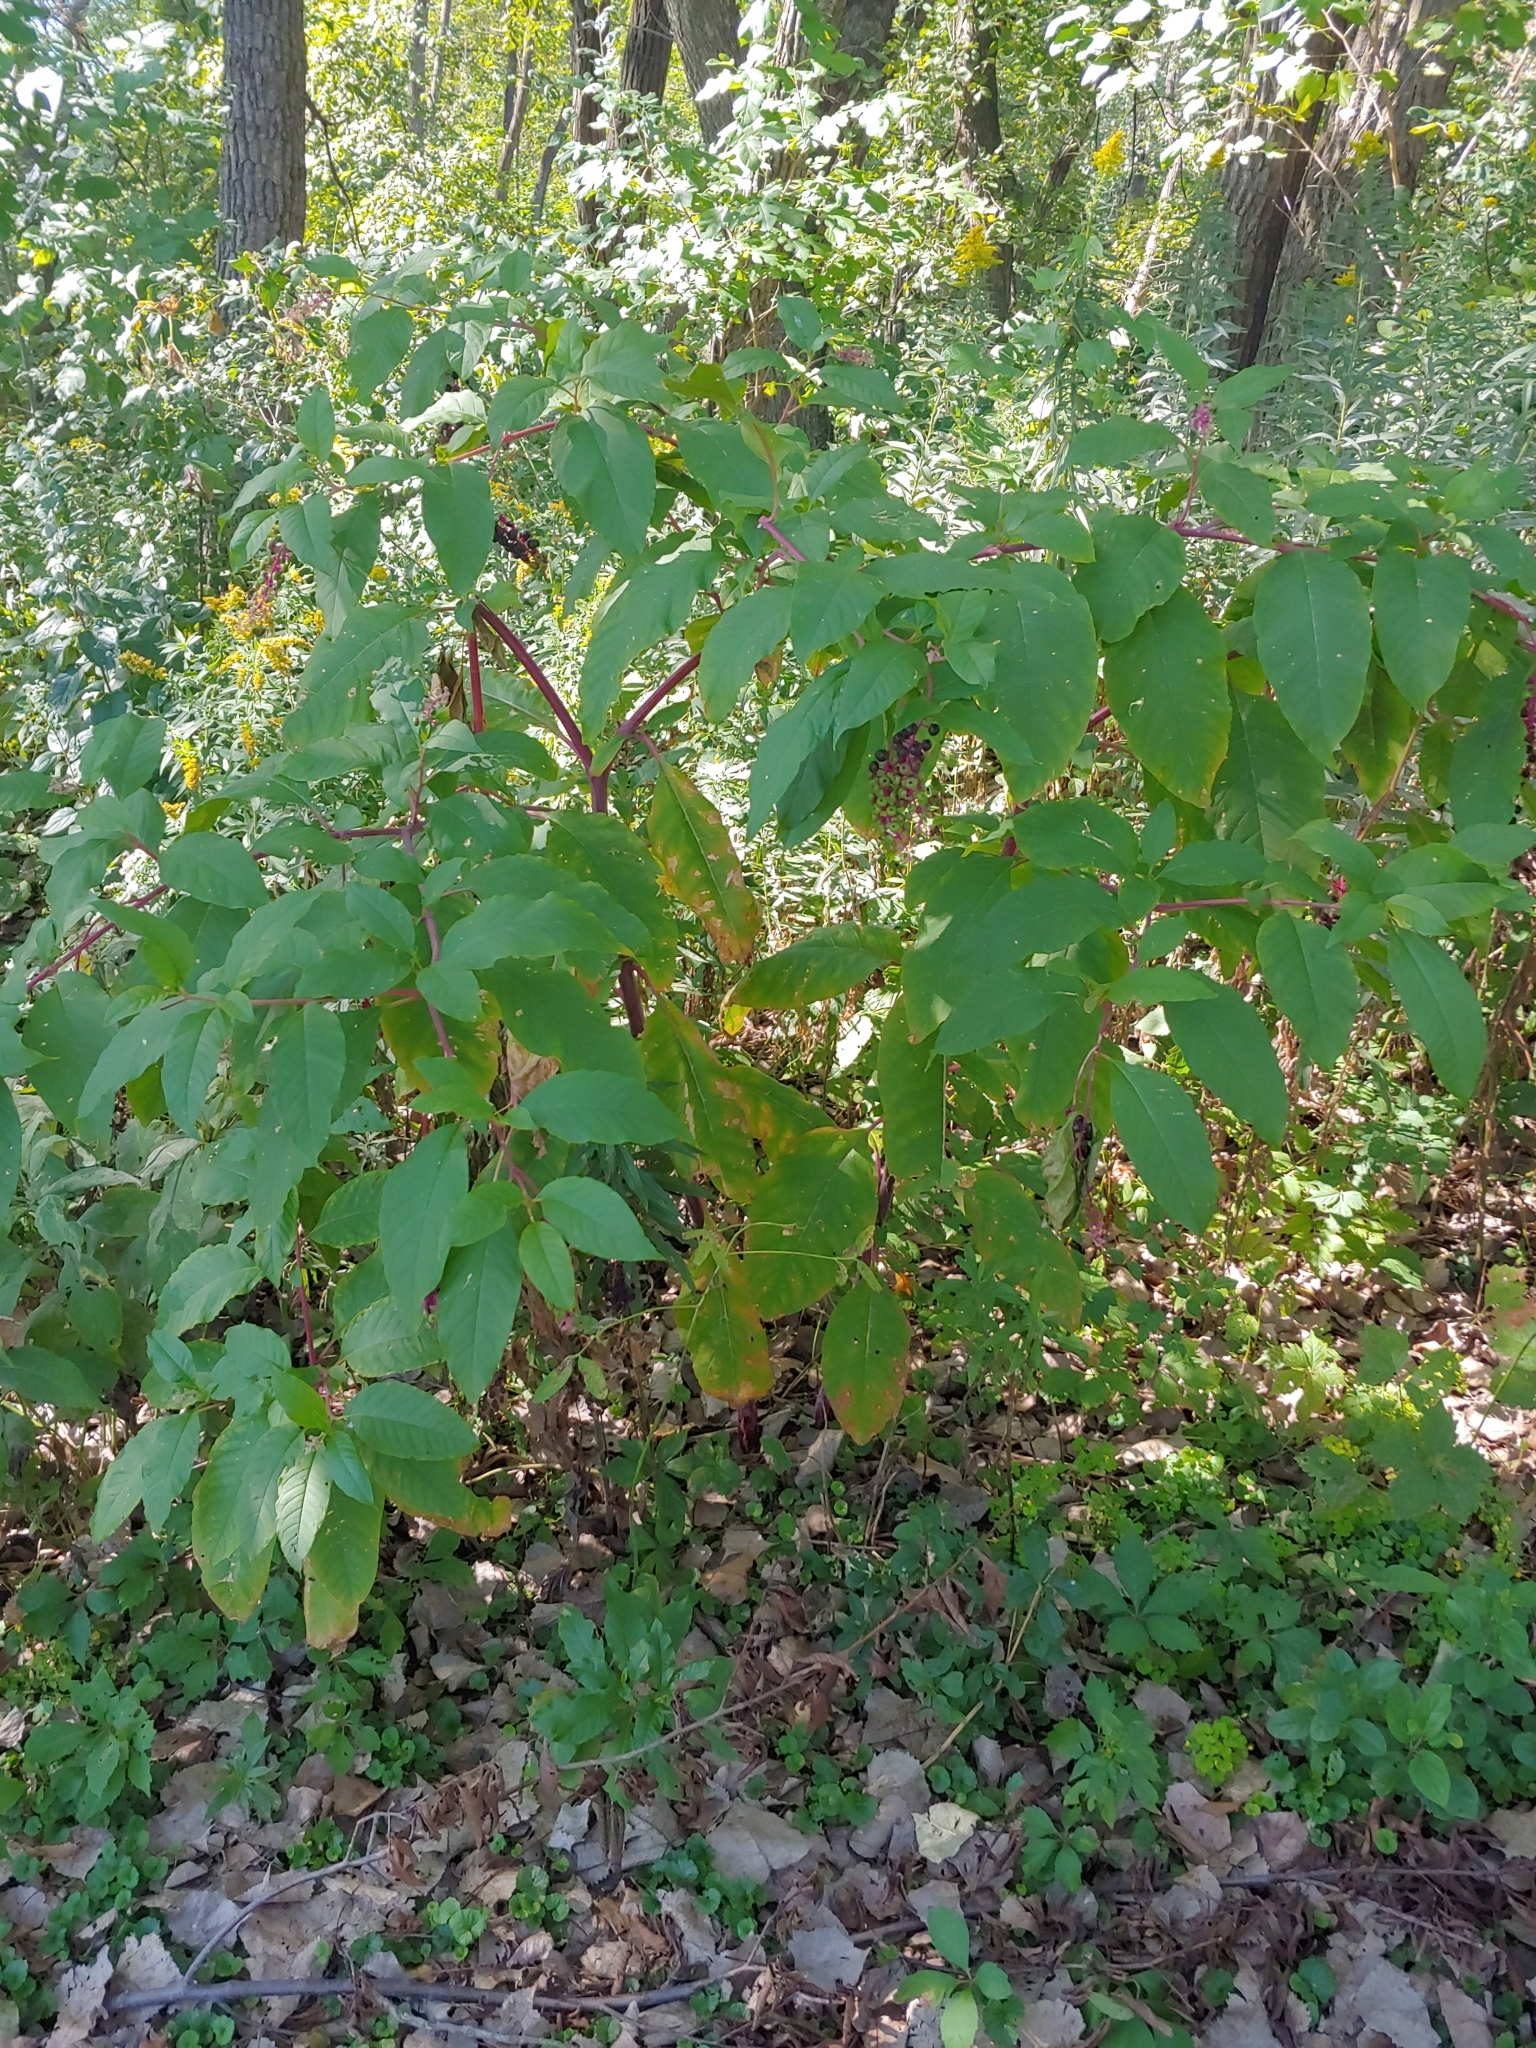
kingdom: Plantae
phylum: Tracheophyta
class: Magnoliopsida
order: Caryophyllales
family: Phytolaccaceae
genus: Phytolacca
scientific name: Phytolacca americana
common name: American pokeweed
